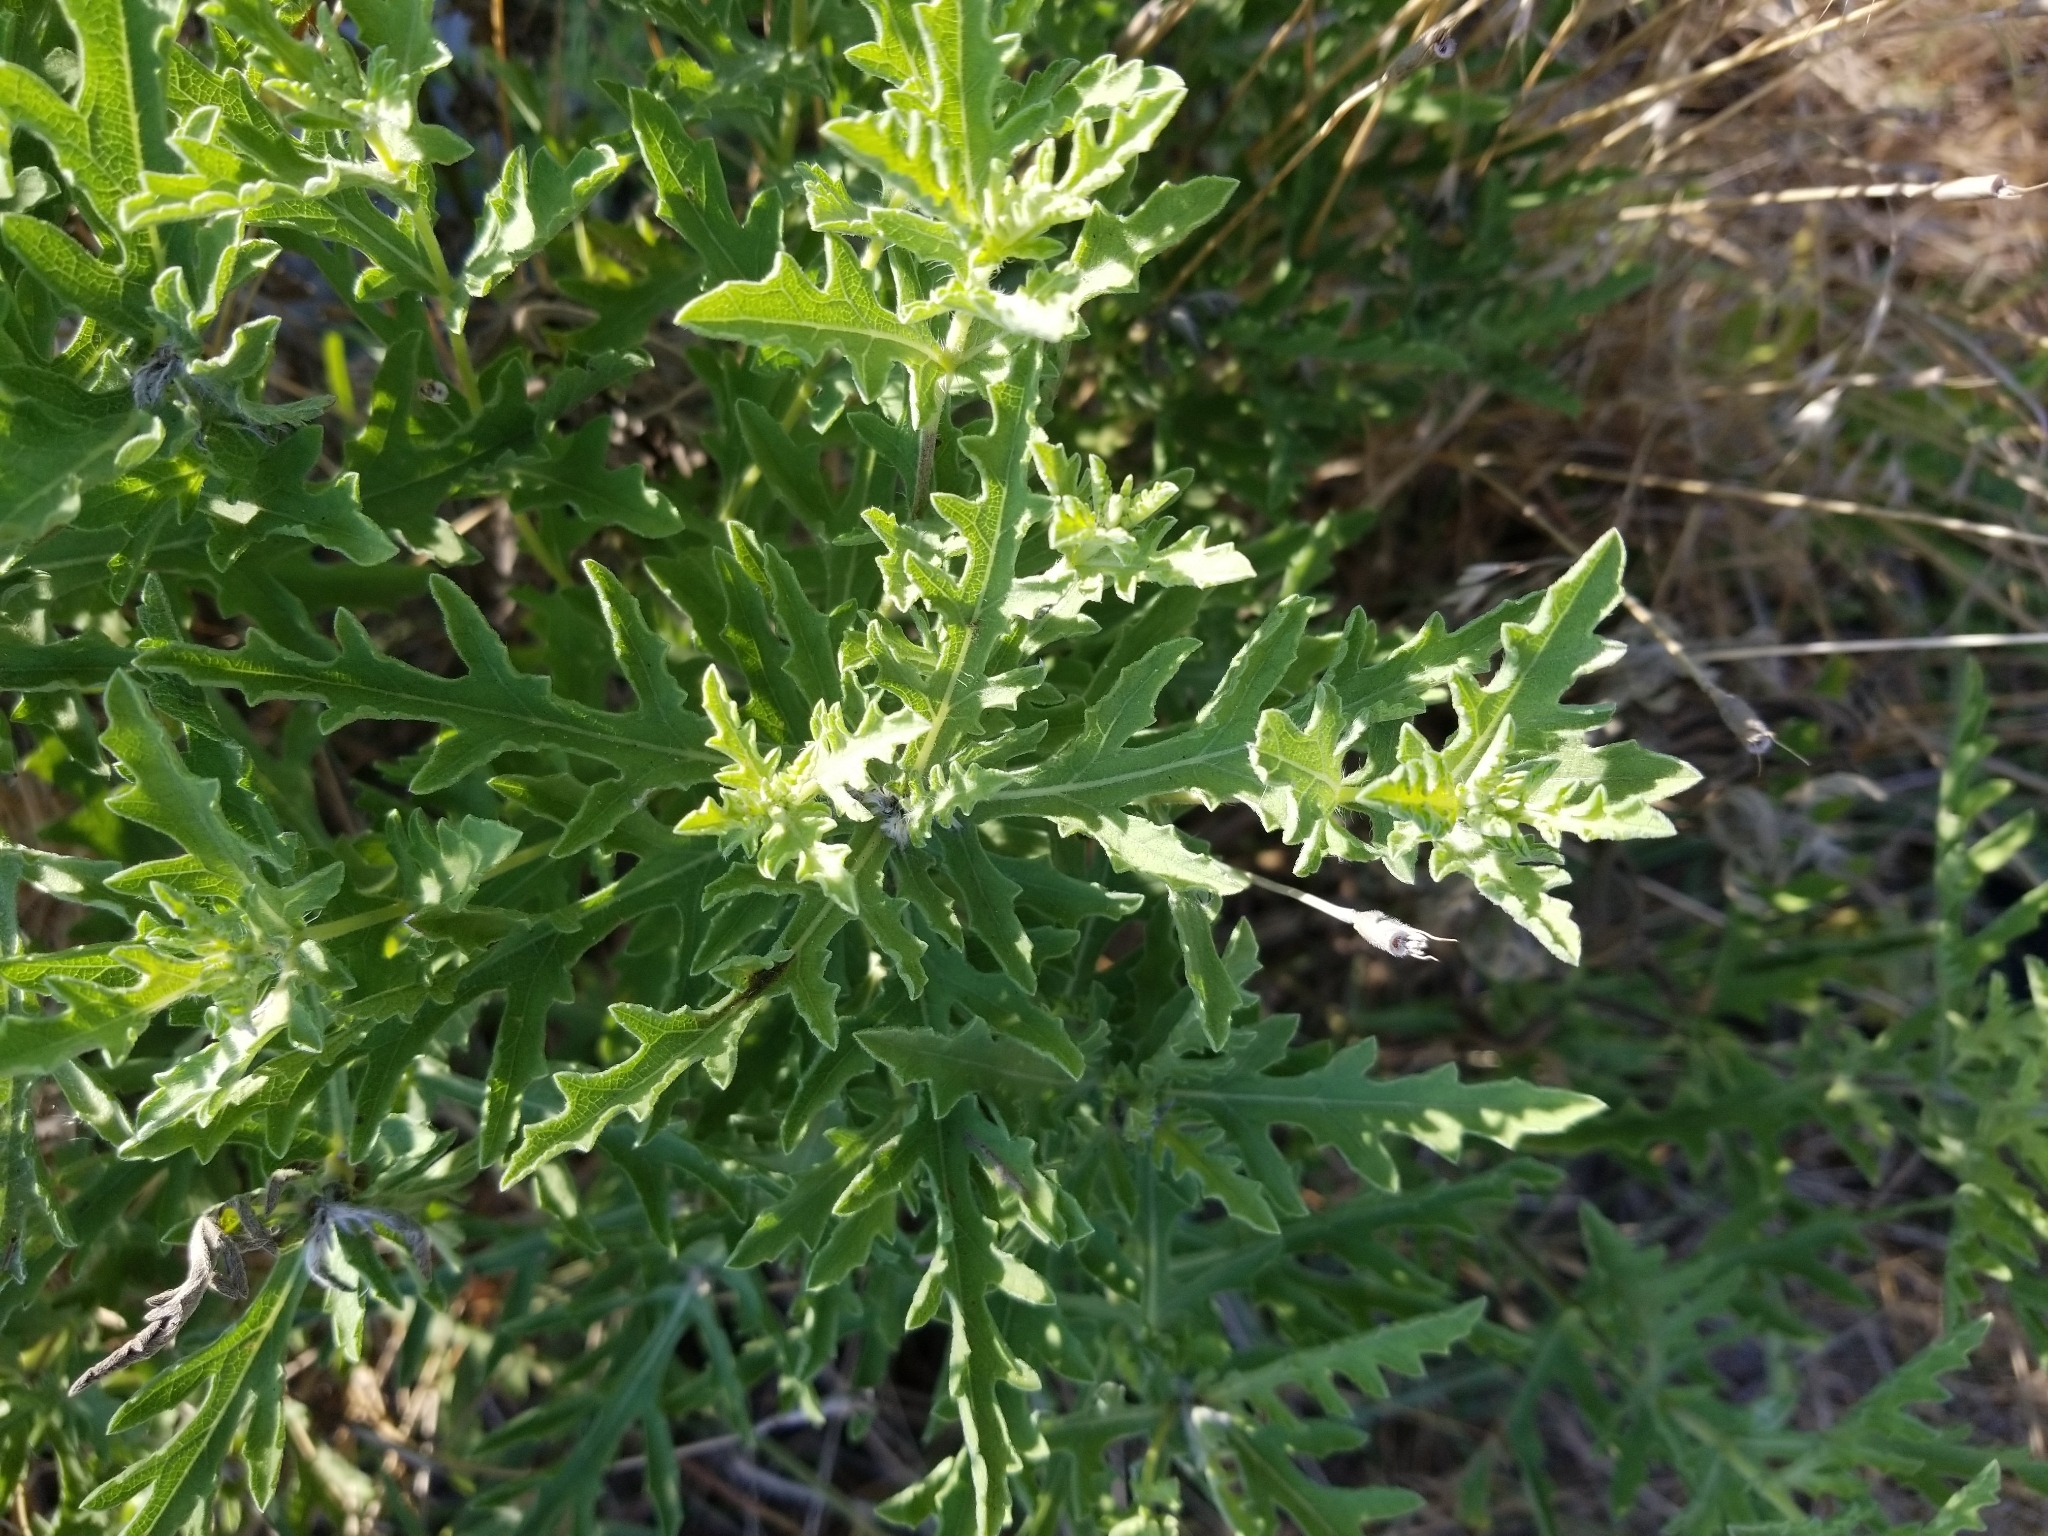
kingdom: Plantae
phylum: Tracheophyta
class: Magnoliopsida
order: Asterales
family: Asteraceae
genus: Ambrosia
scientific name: Ambrosia psilostachya
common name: Perennial ragweed
